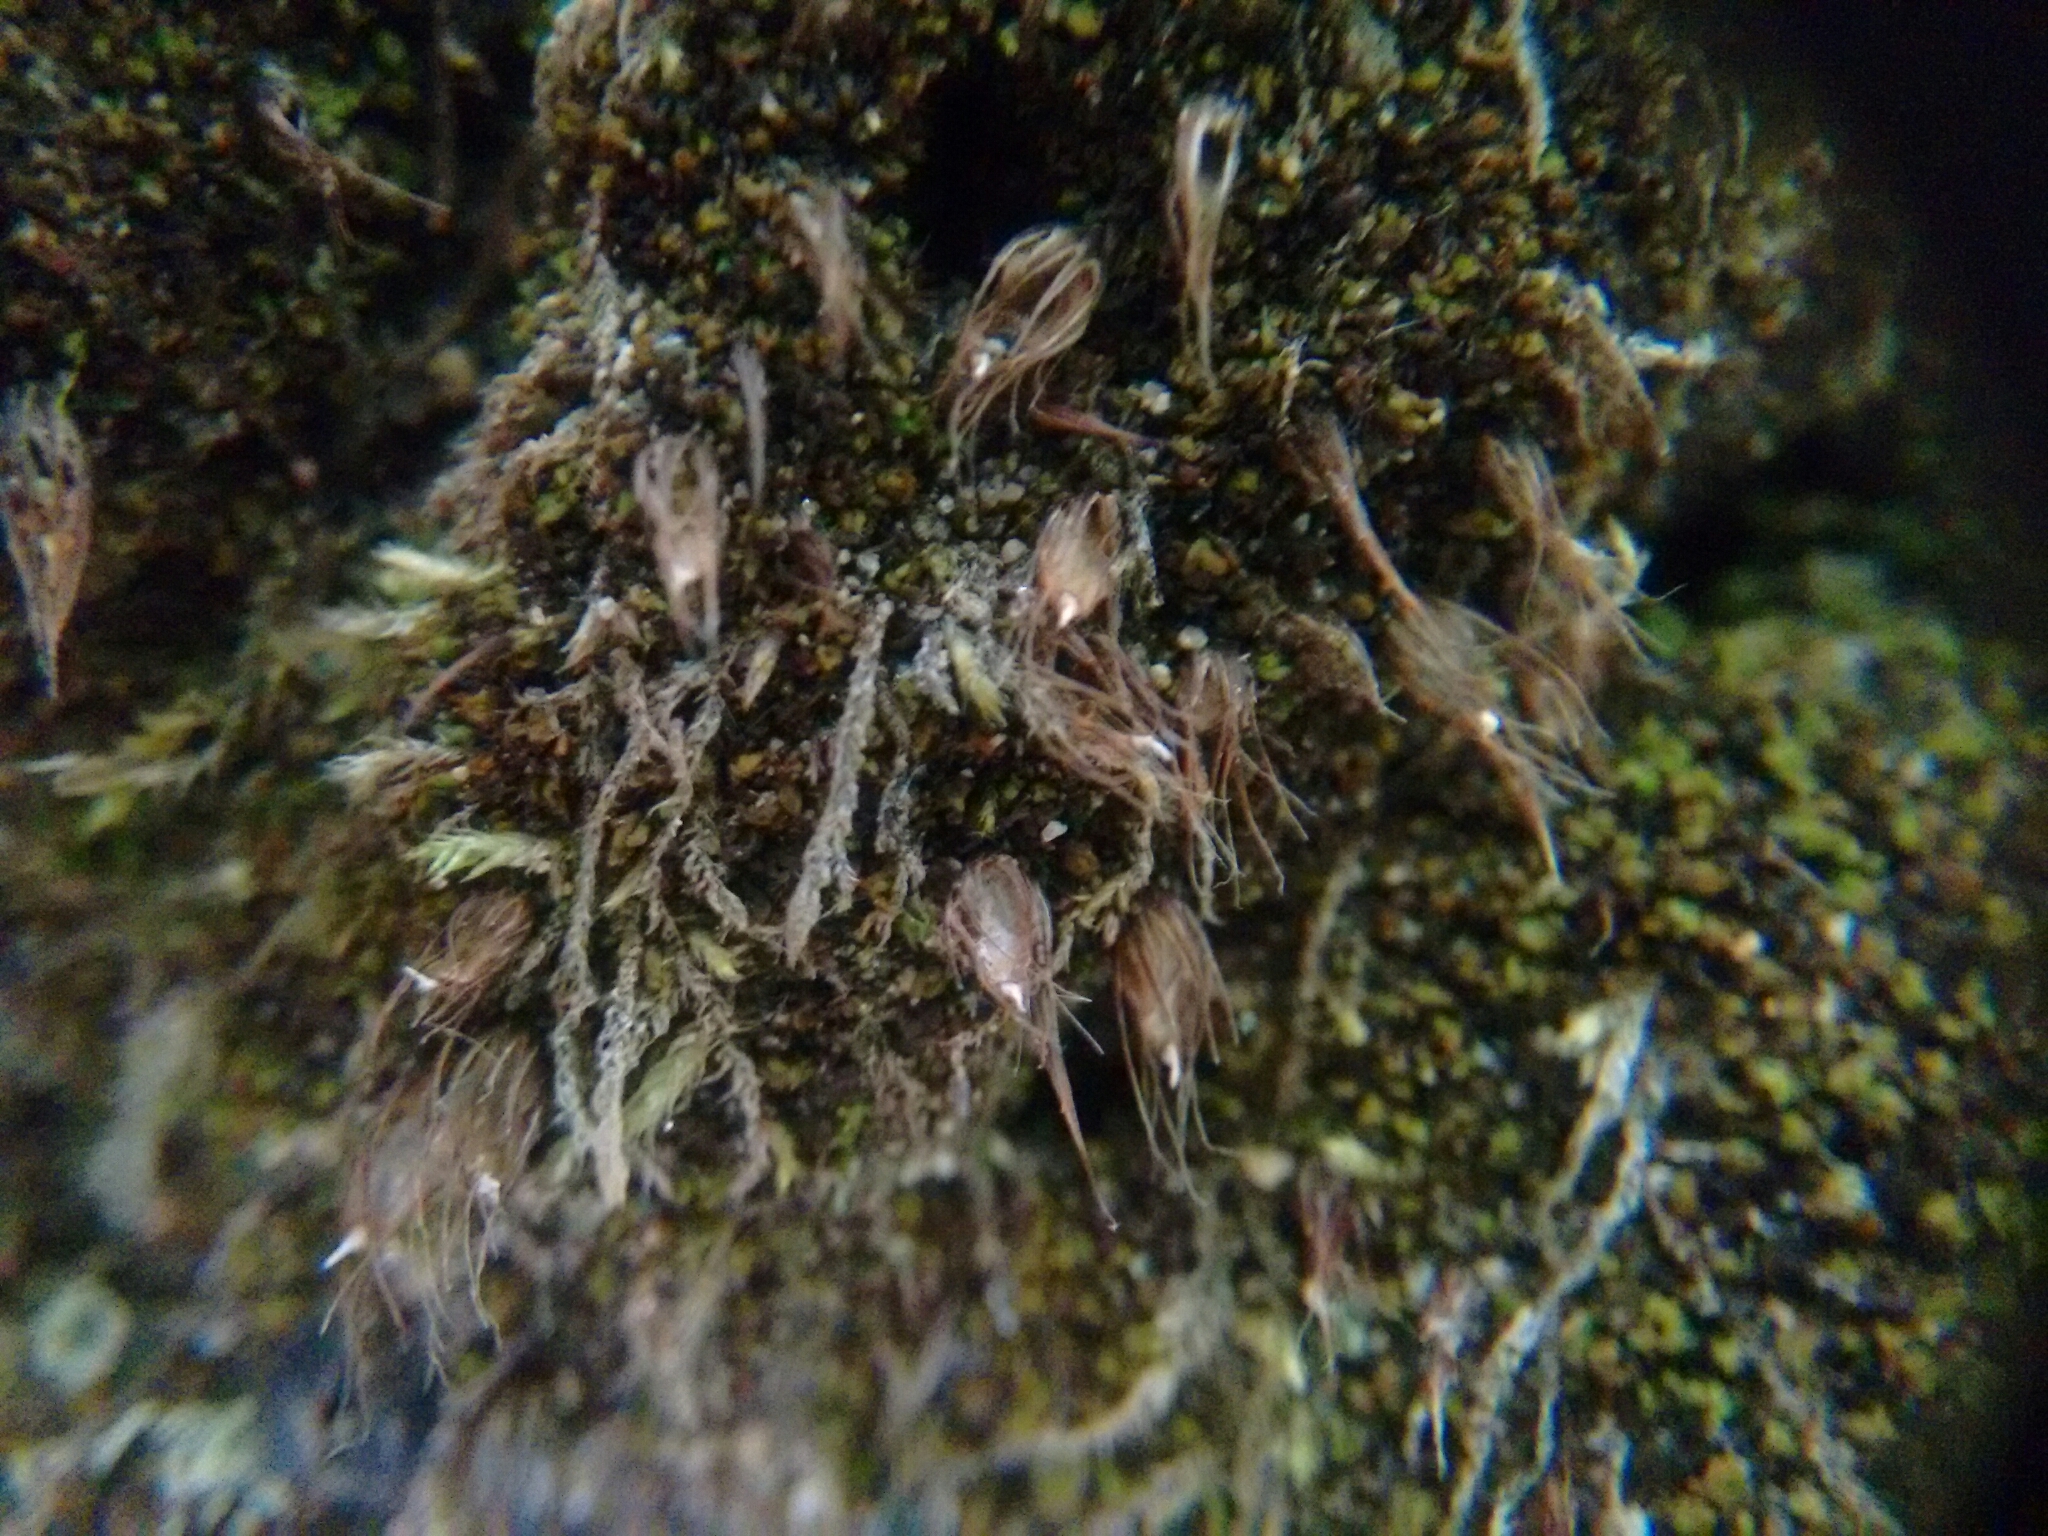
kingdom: Plantae
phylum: Bryophyta
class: Bryopsida
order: Diphysciales
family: Diphysciaceae
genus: Diphyscium
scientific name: Diphyscium foliosum
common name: Nut moss
